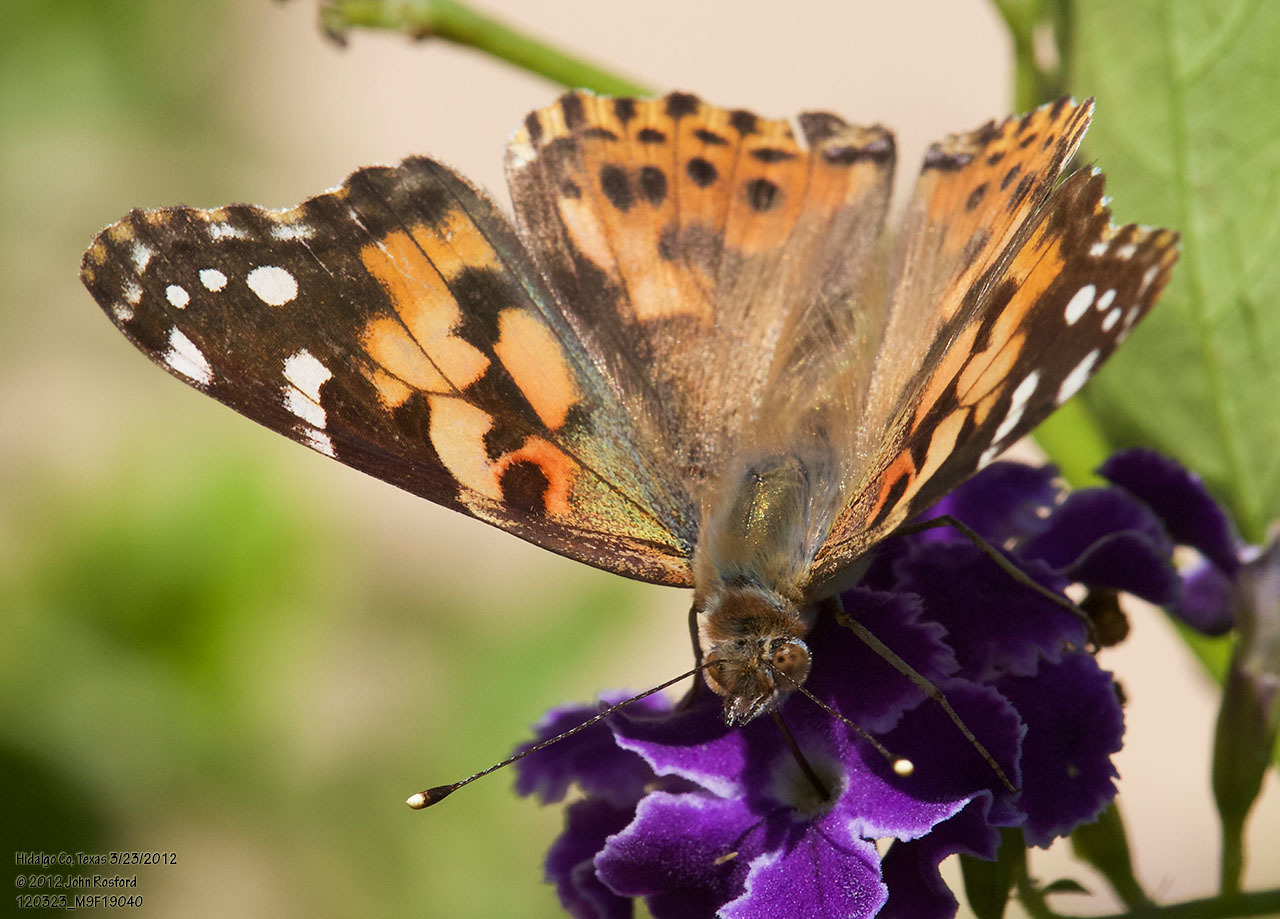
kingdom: Animalia
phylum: Arthropoda
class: Insecta
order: Lepidoptera
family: Nymphalidae
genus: Vanessa
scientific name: Vanessa cardui
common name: Painted lady
